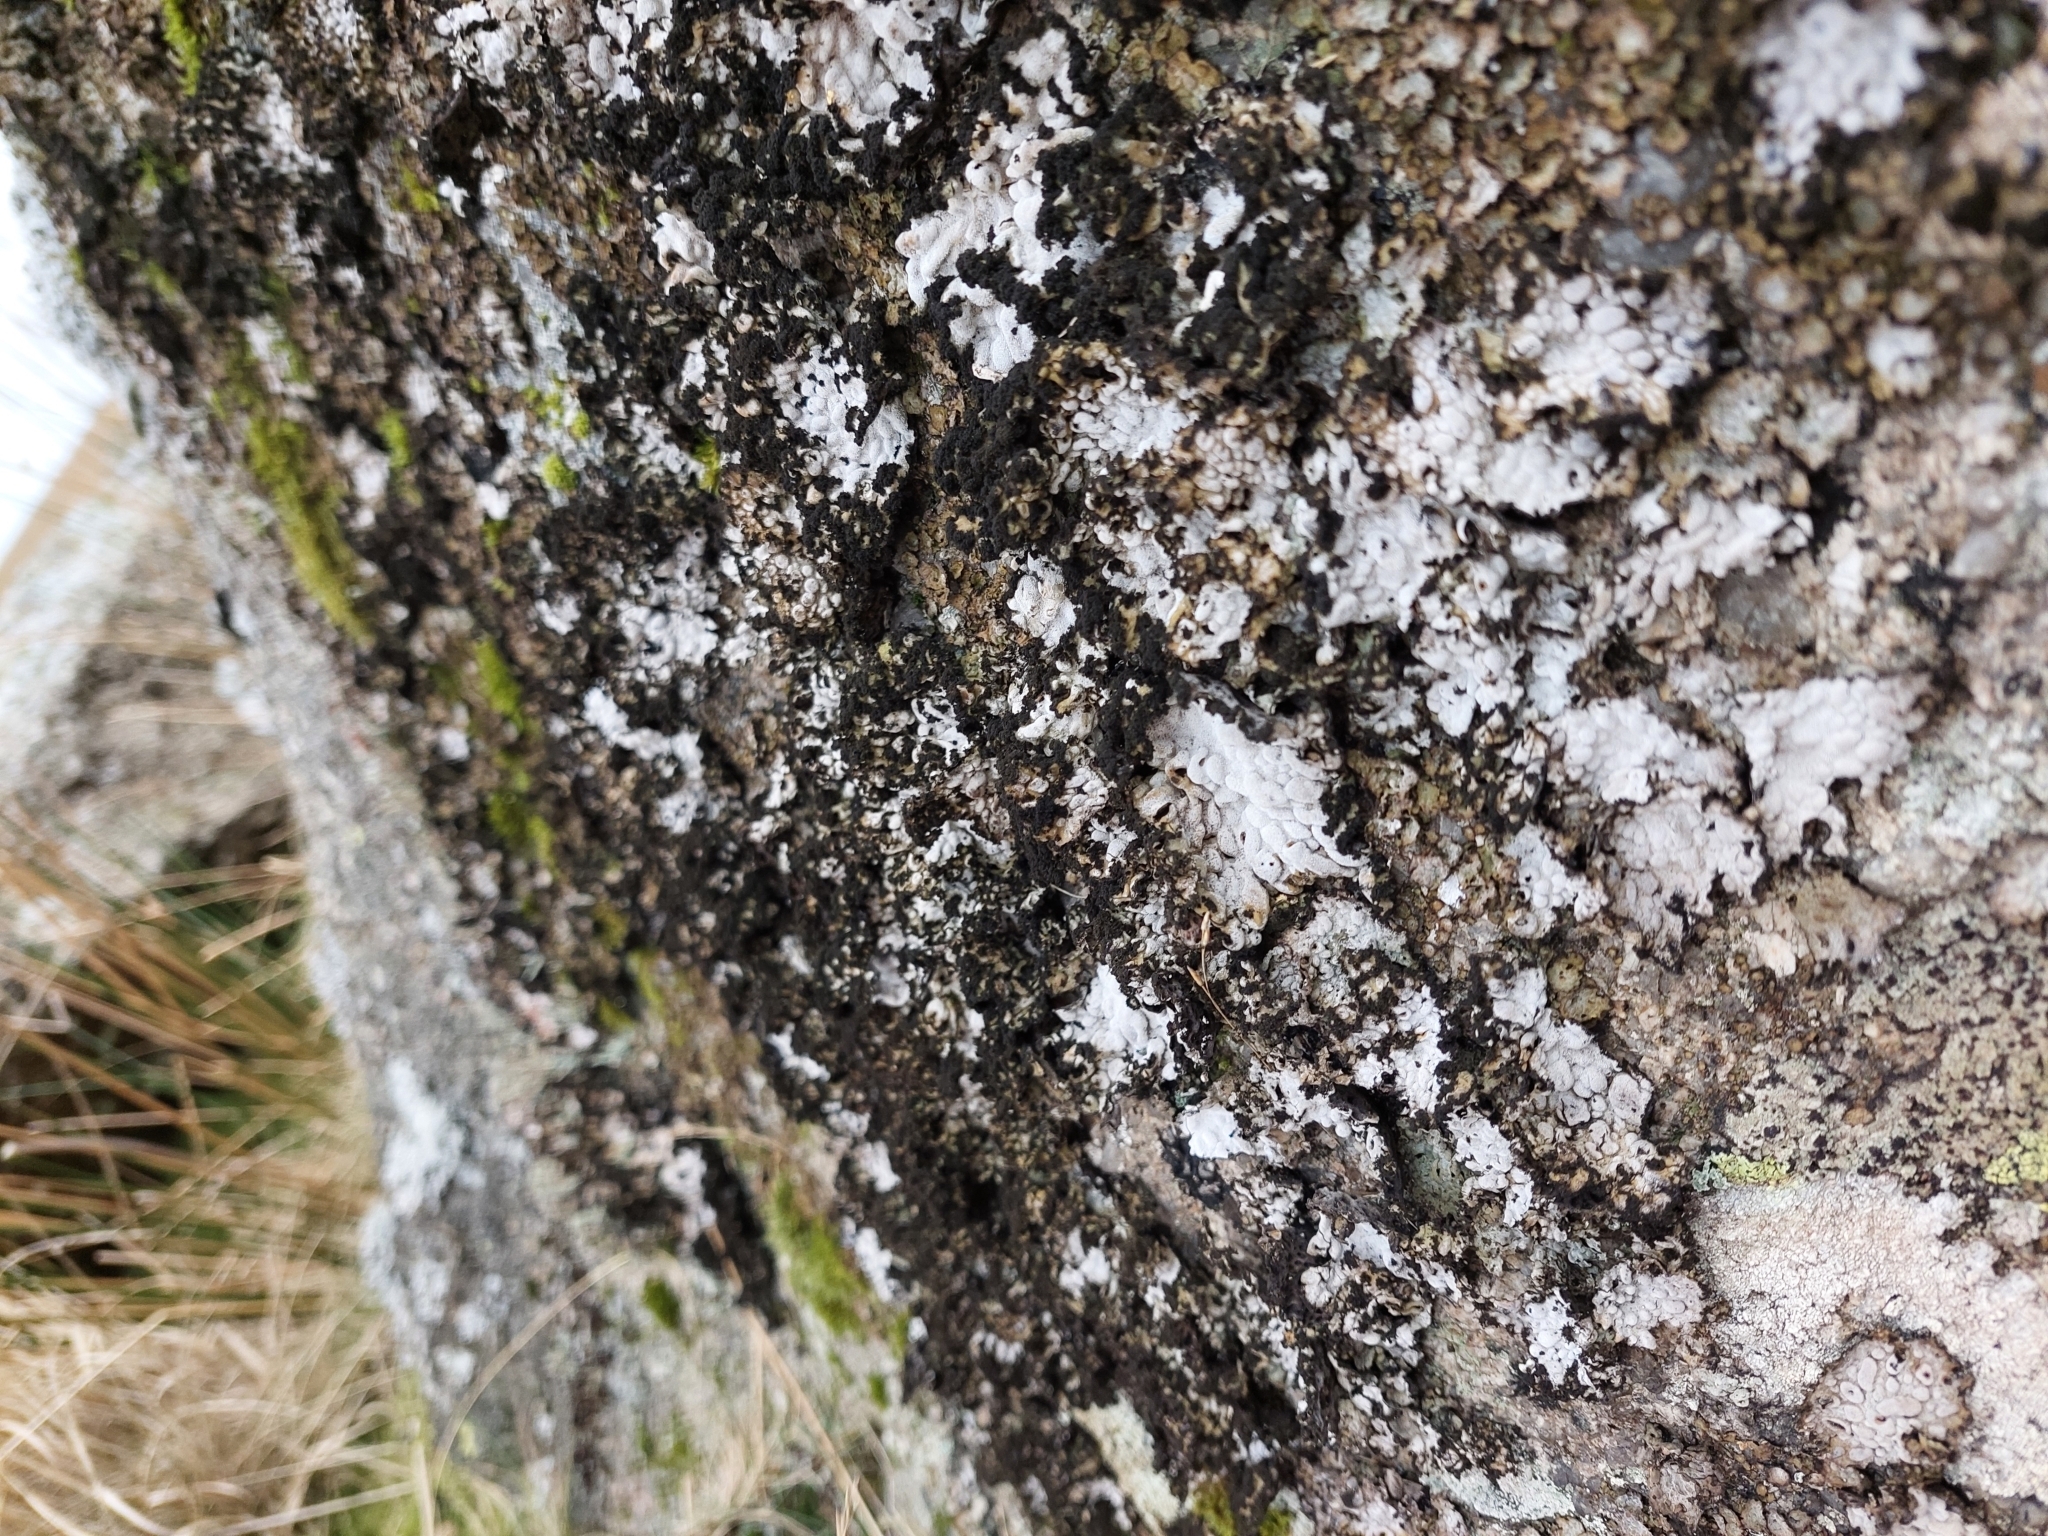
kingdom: Fungi
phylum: Ascomycota
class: Lecanoromycetes
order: Umbilicariales
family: Umbilicariaceae
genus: Lasallia
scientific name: Lasallia pustulata
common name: Blistered toadskin lichen
